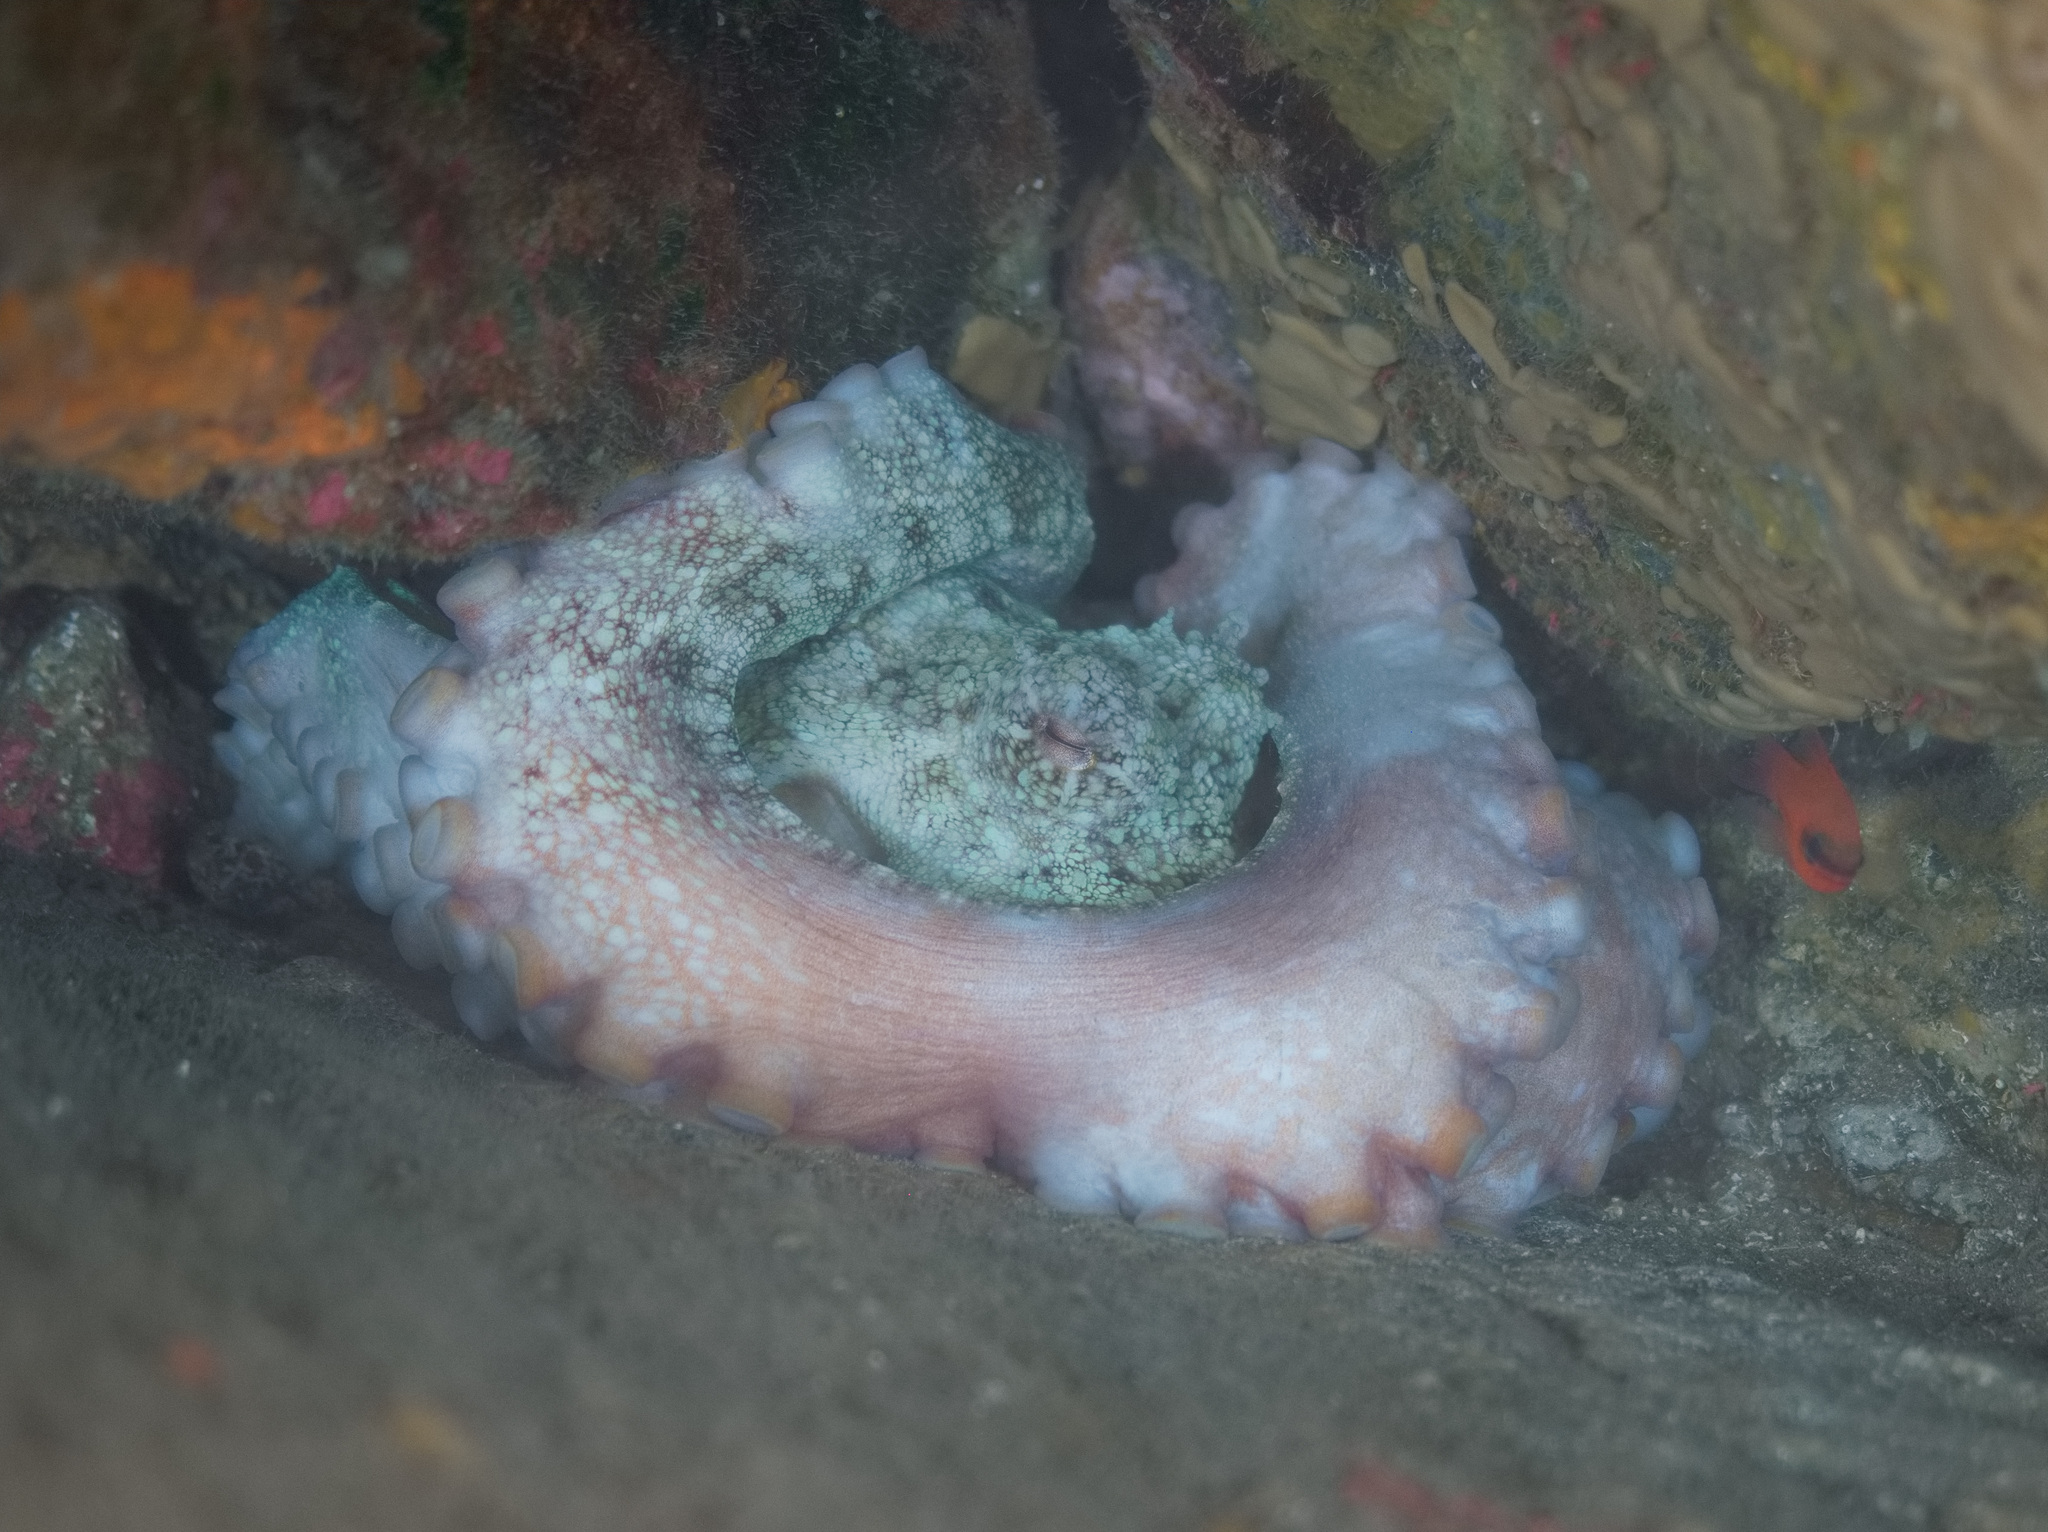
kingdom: Animalia
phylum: Mollusca
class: Cephalopoda
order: Octopoda
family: Octopodidae
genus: Octopus
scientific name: Octopus vulgaris
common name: Common octopus
